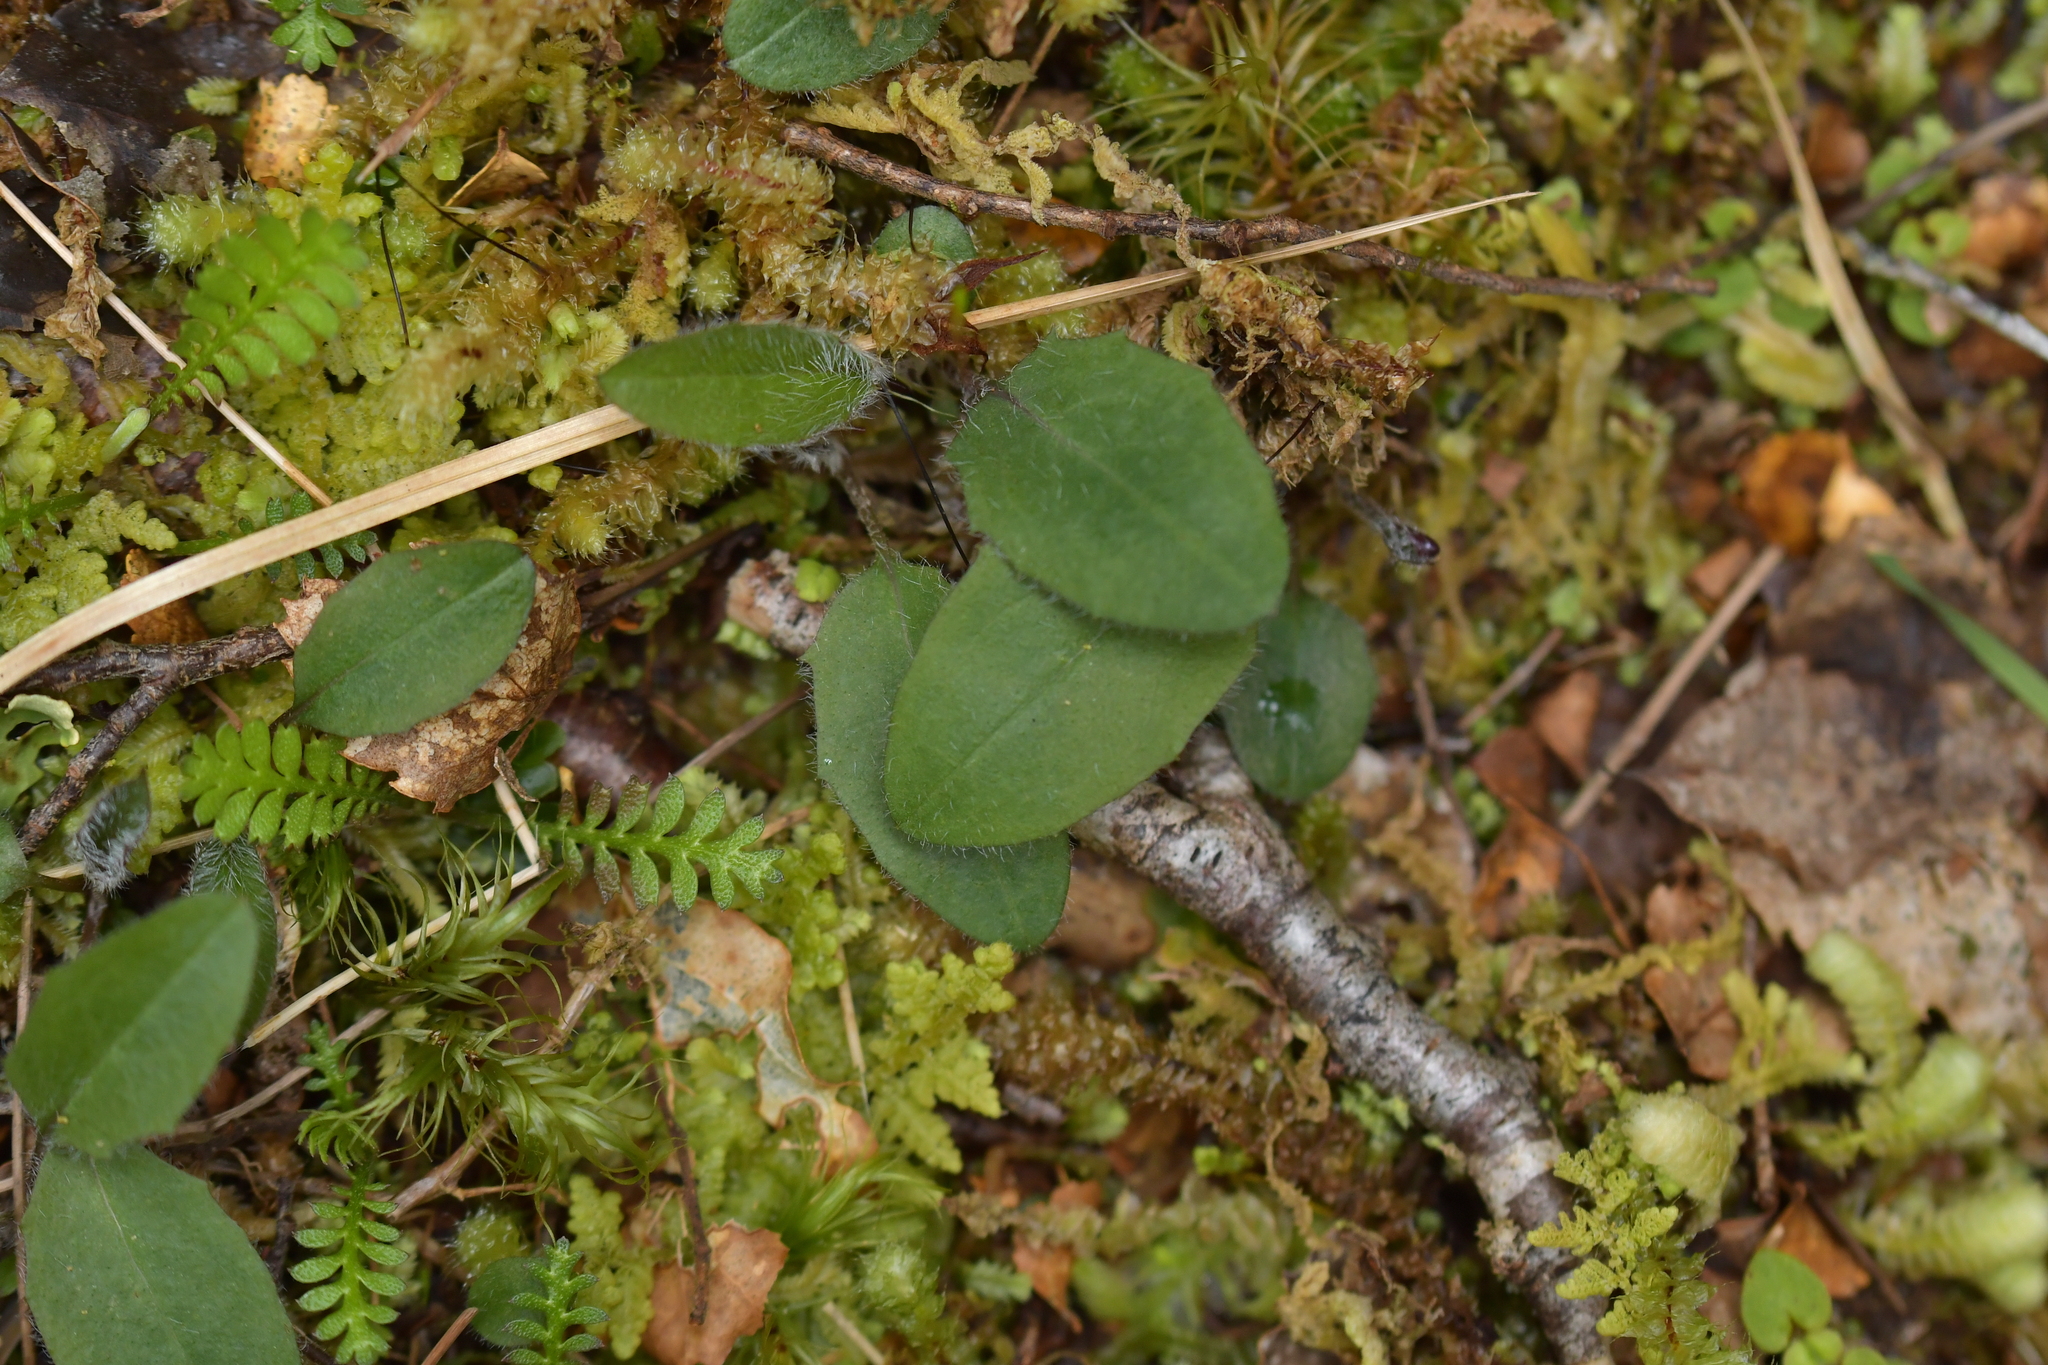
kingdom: Plantae
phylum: Tracheophyta
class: Magnoliopsida
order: Asterales
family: Asteraceae
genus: Hieracium
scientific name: Hieracium lepidulum
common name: Irregular-toothed hawkweed
